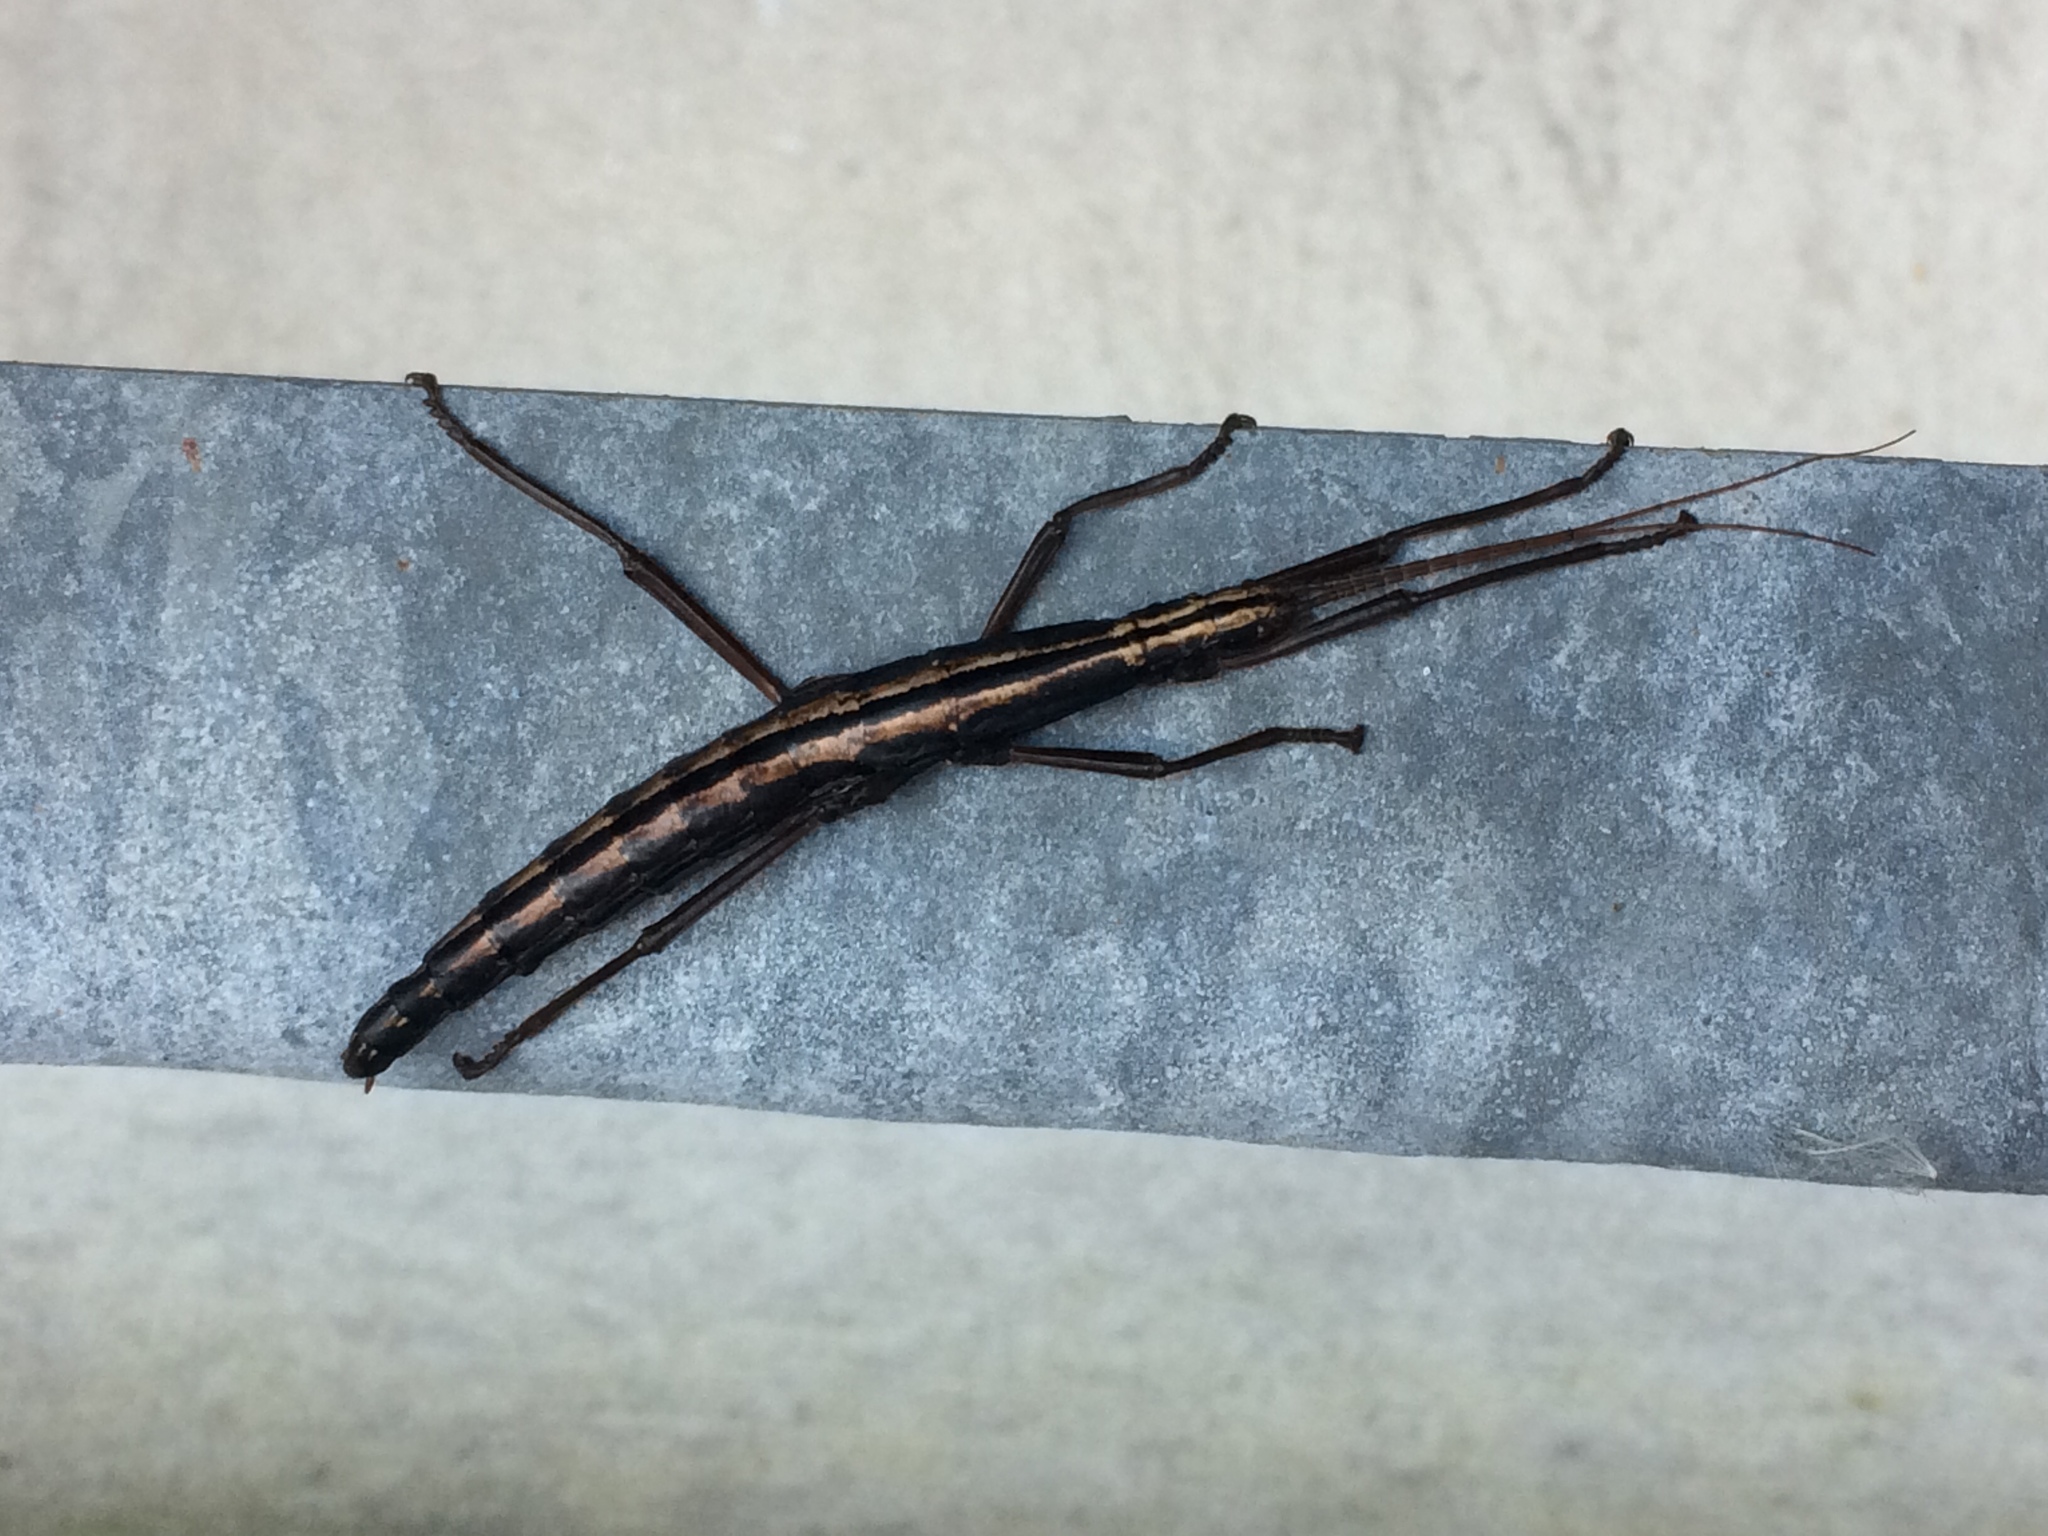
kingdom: Animalia
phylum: Arthropoda
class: Insecta
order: Phasmida
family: Pseudophasmatidae
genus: Anisomorpha
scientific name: Anisomorpha buprestoides
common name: Florida stick insect
